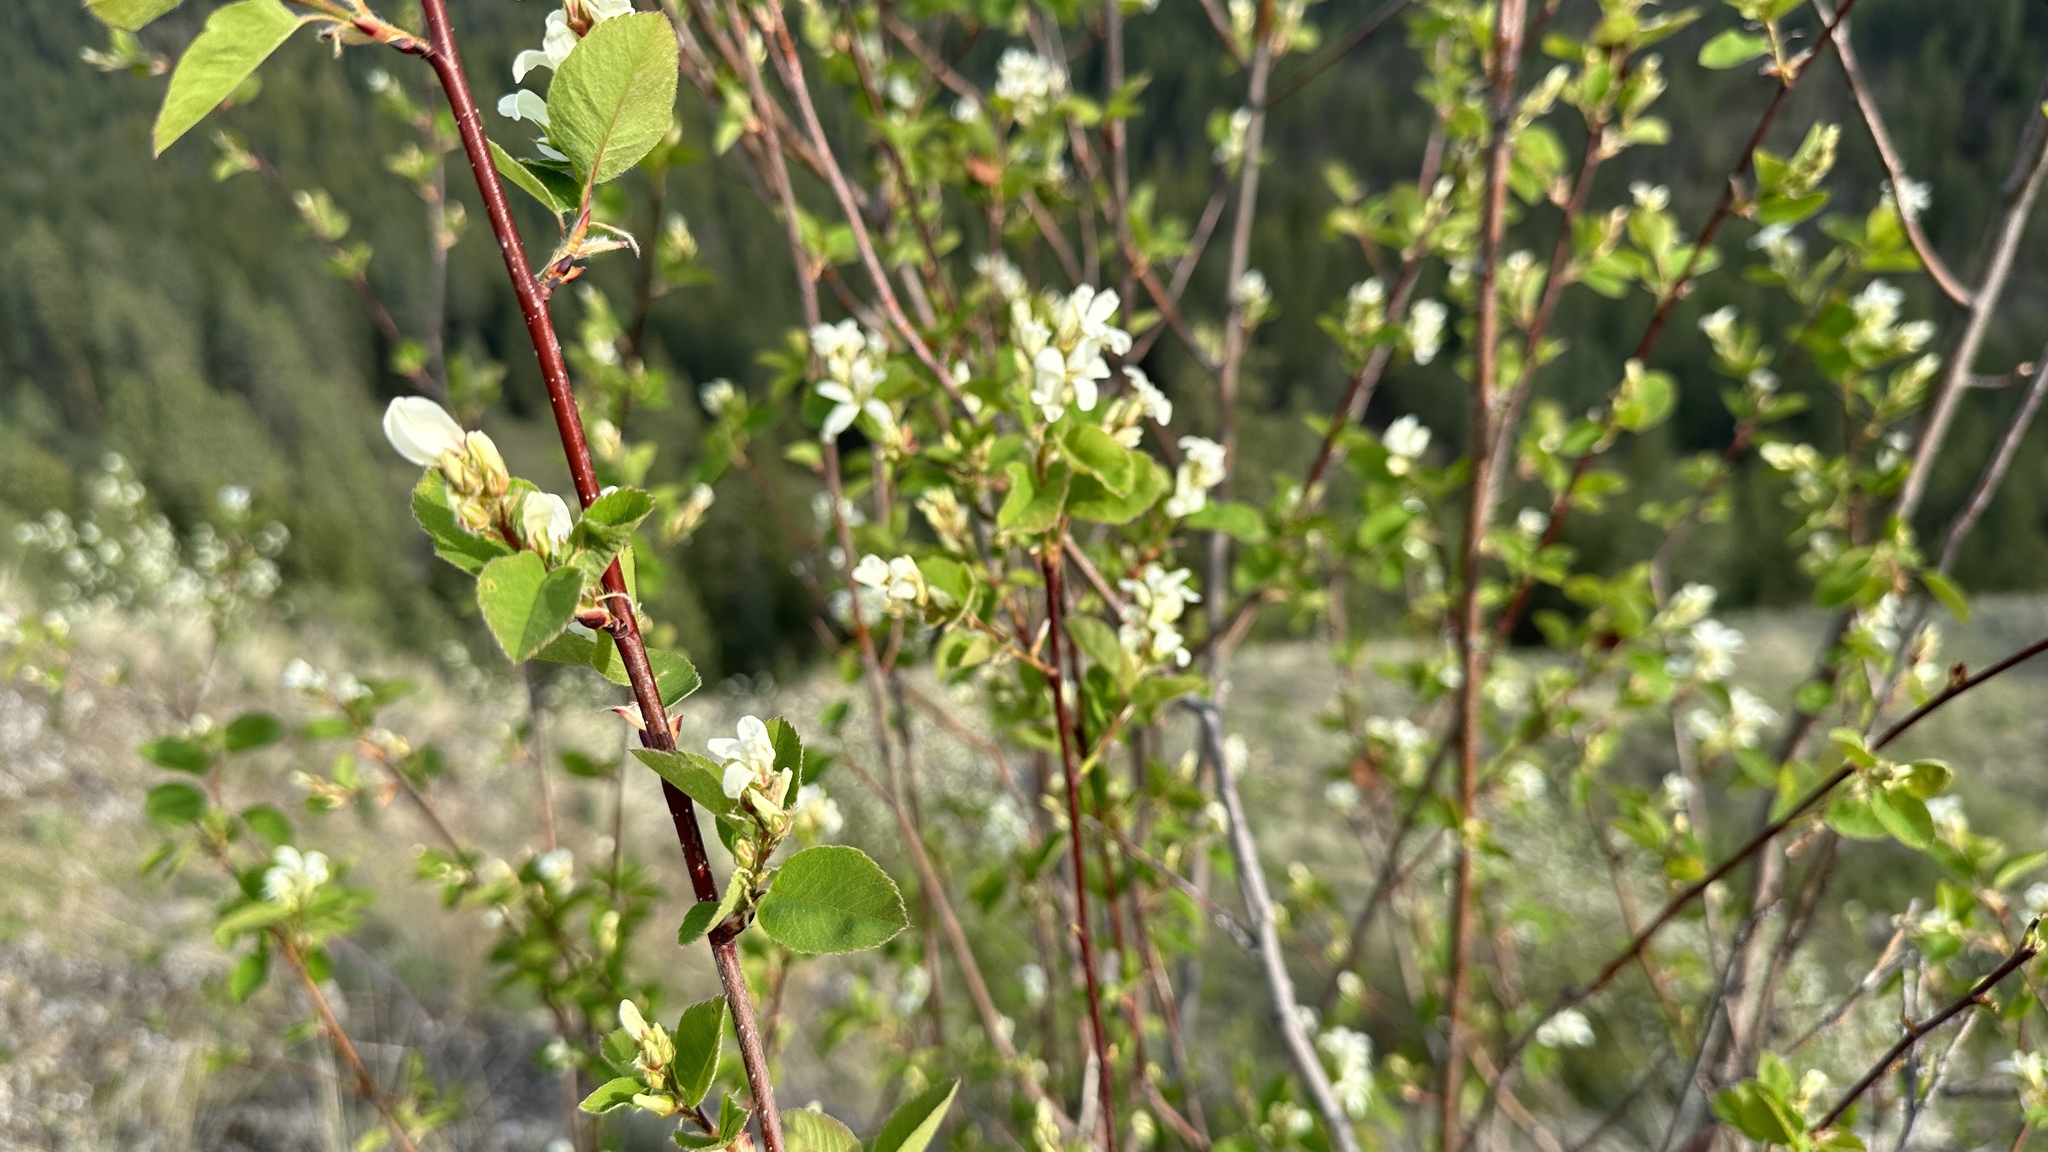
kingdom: Plantae
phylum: Tracheophyta
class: Magnoliopsida
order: Rosales
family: Rosaceae
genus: Amelanchier
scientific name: Amelanchier alnifolia
